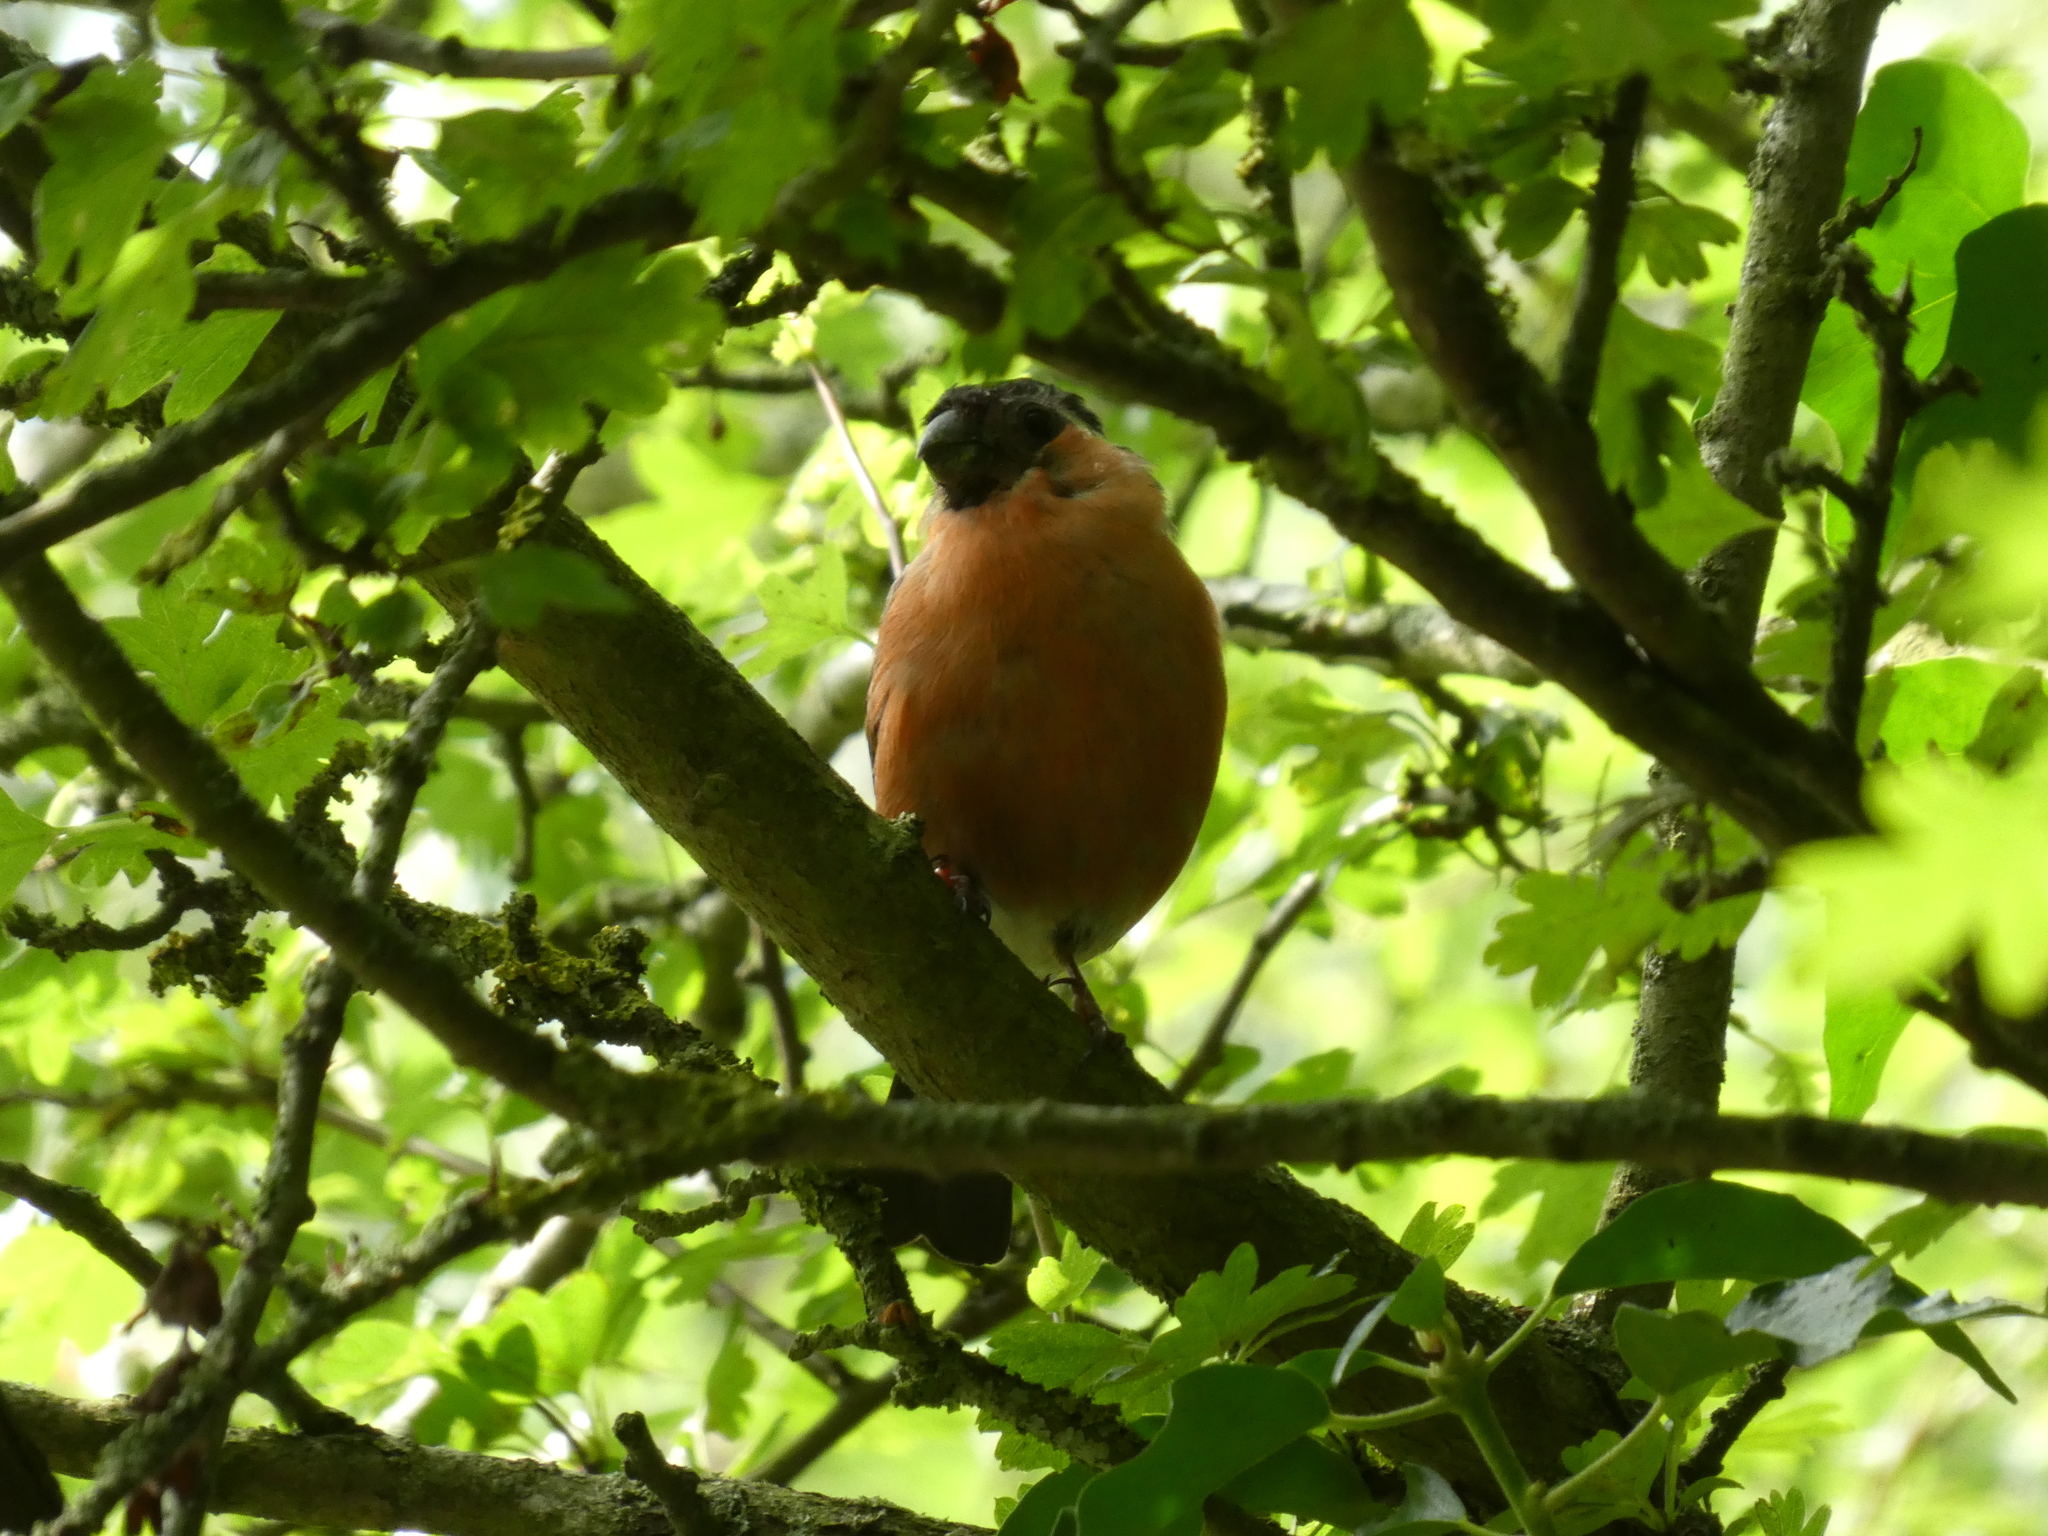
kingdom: Animalia
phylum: Chordata
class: Aves
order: Passeriformes
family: Fringillidae
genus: Pyrrhula
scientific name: Pyrrhula pyrrhula
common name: Eurasian bullfinch
